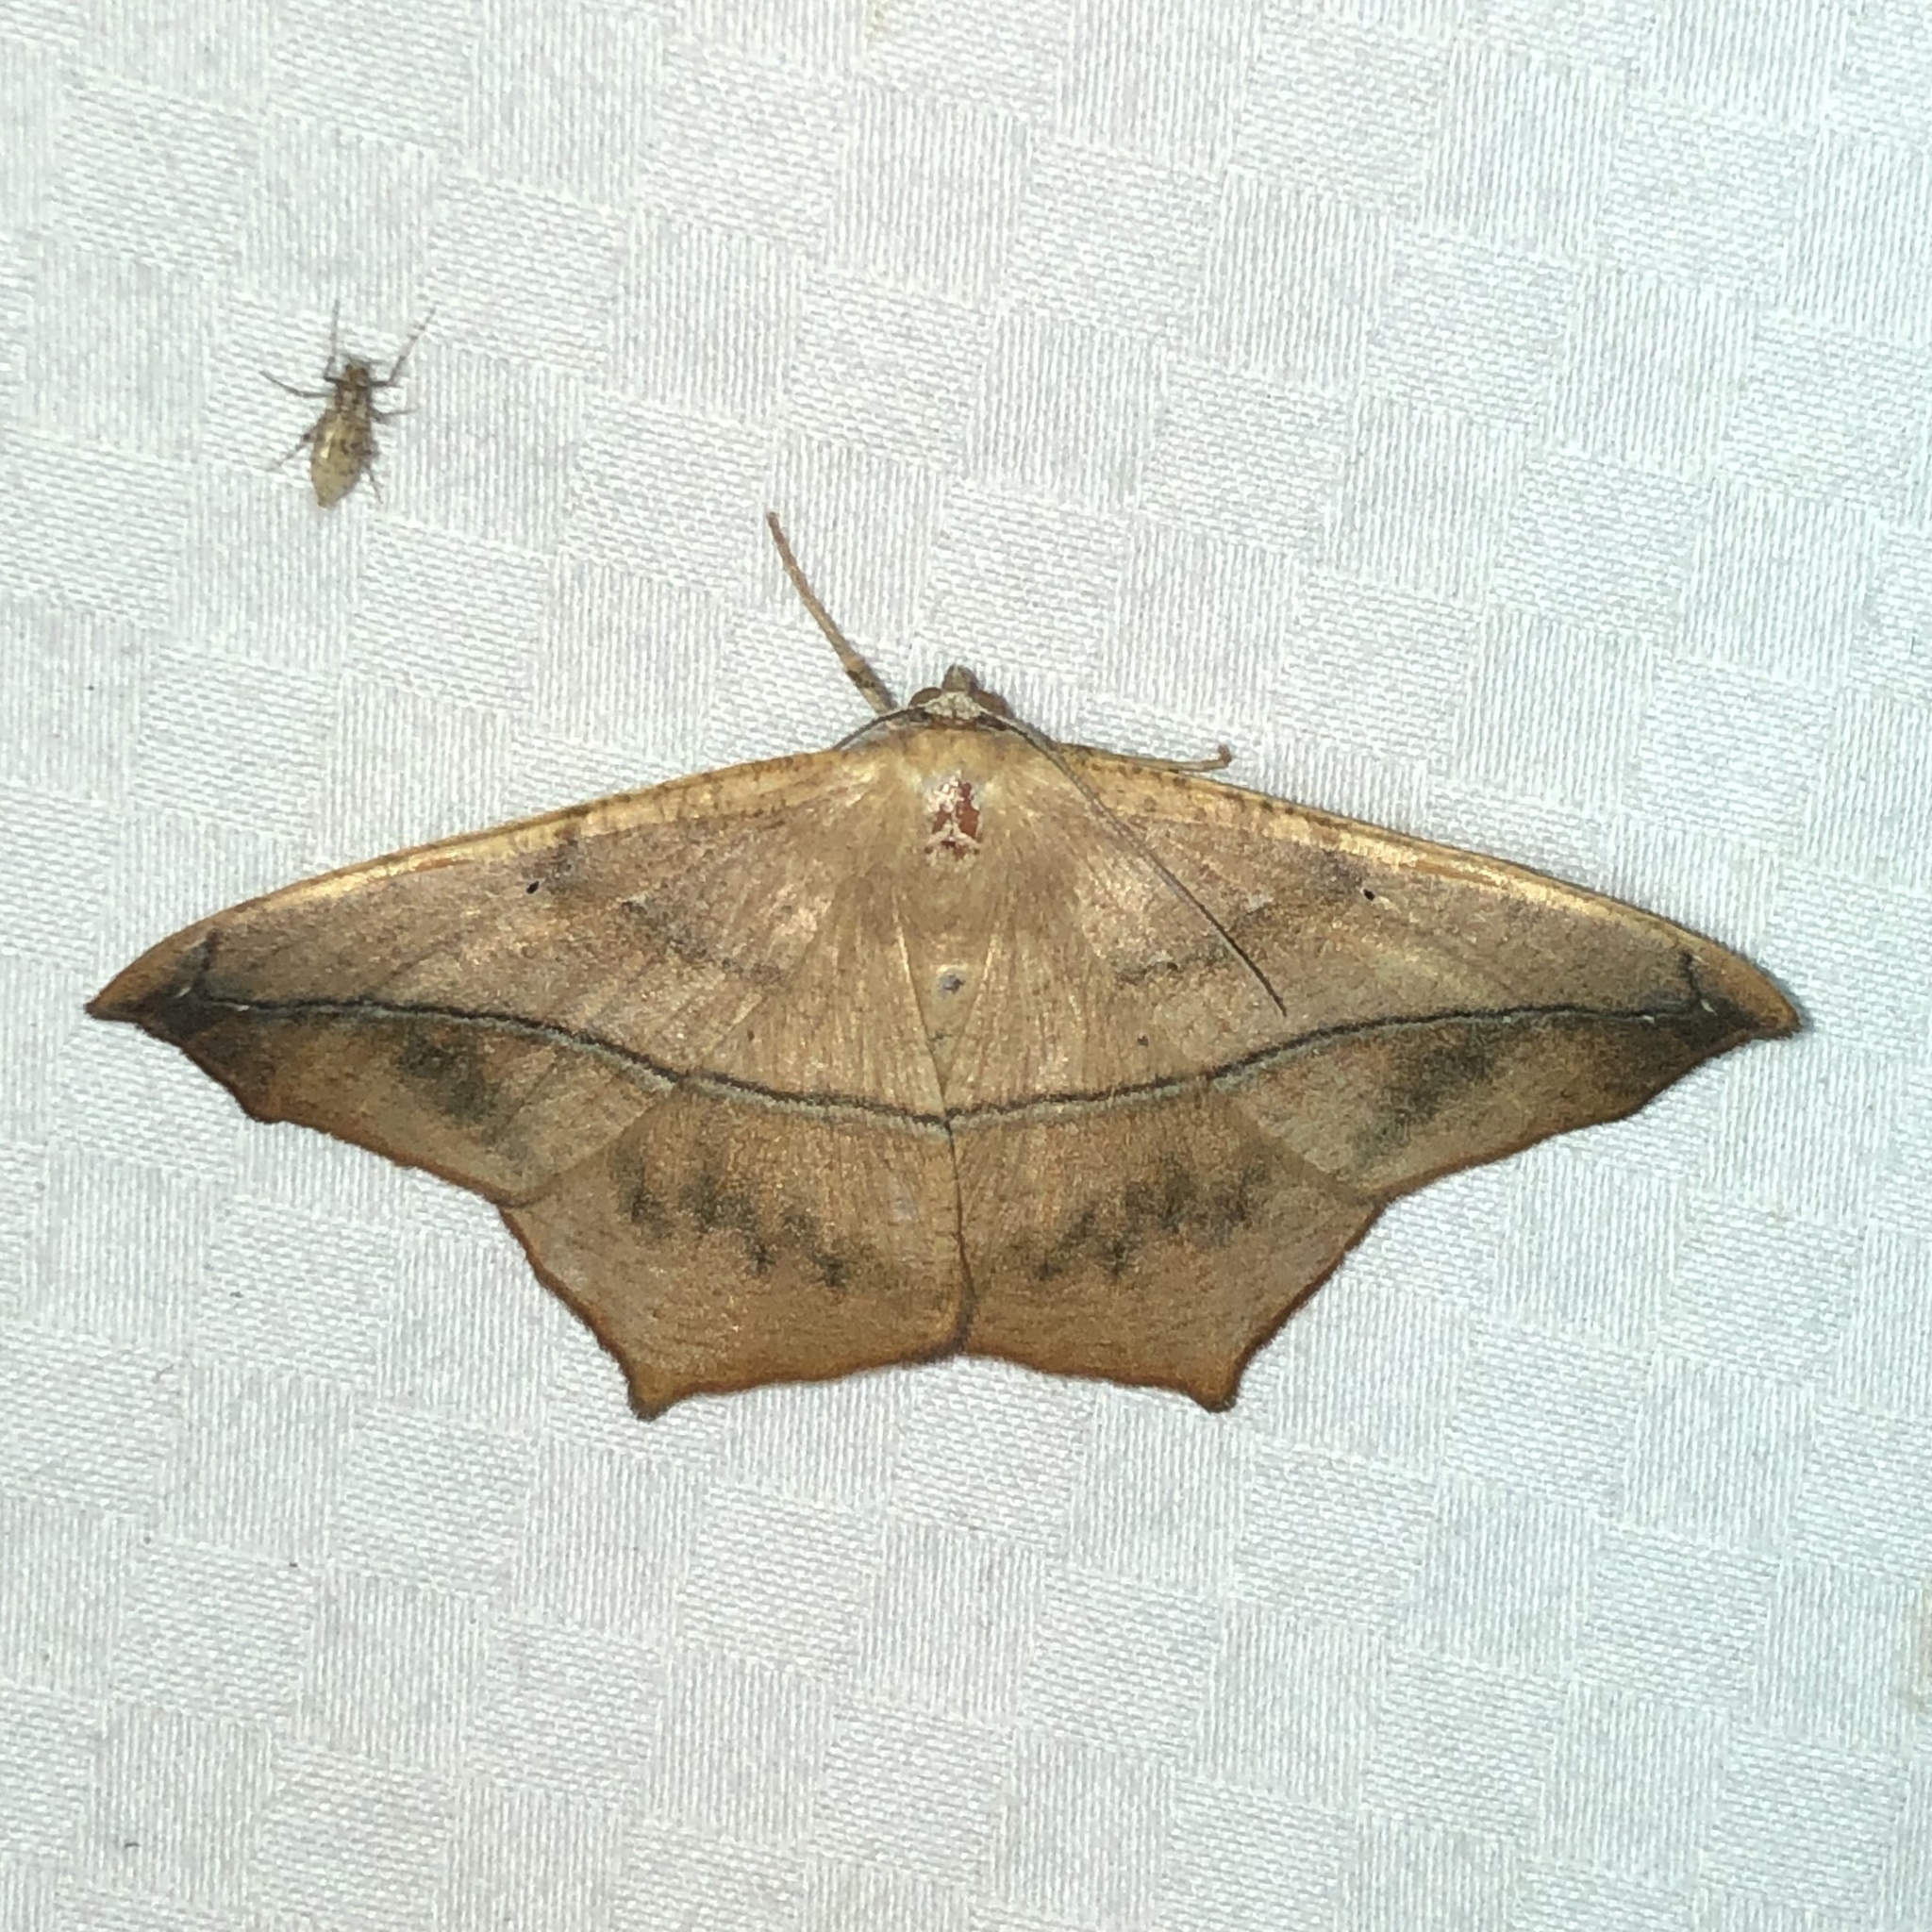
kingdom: Animalia
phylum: Arthropoda
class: Insecta
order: Lepidoptera
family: Geometridae
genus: Prochoerodes
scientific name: Prochoerodes lineola
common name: Large maple spanworm
